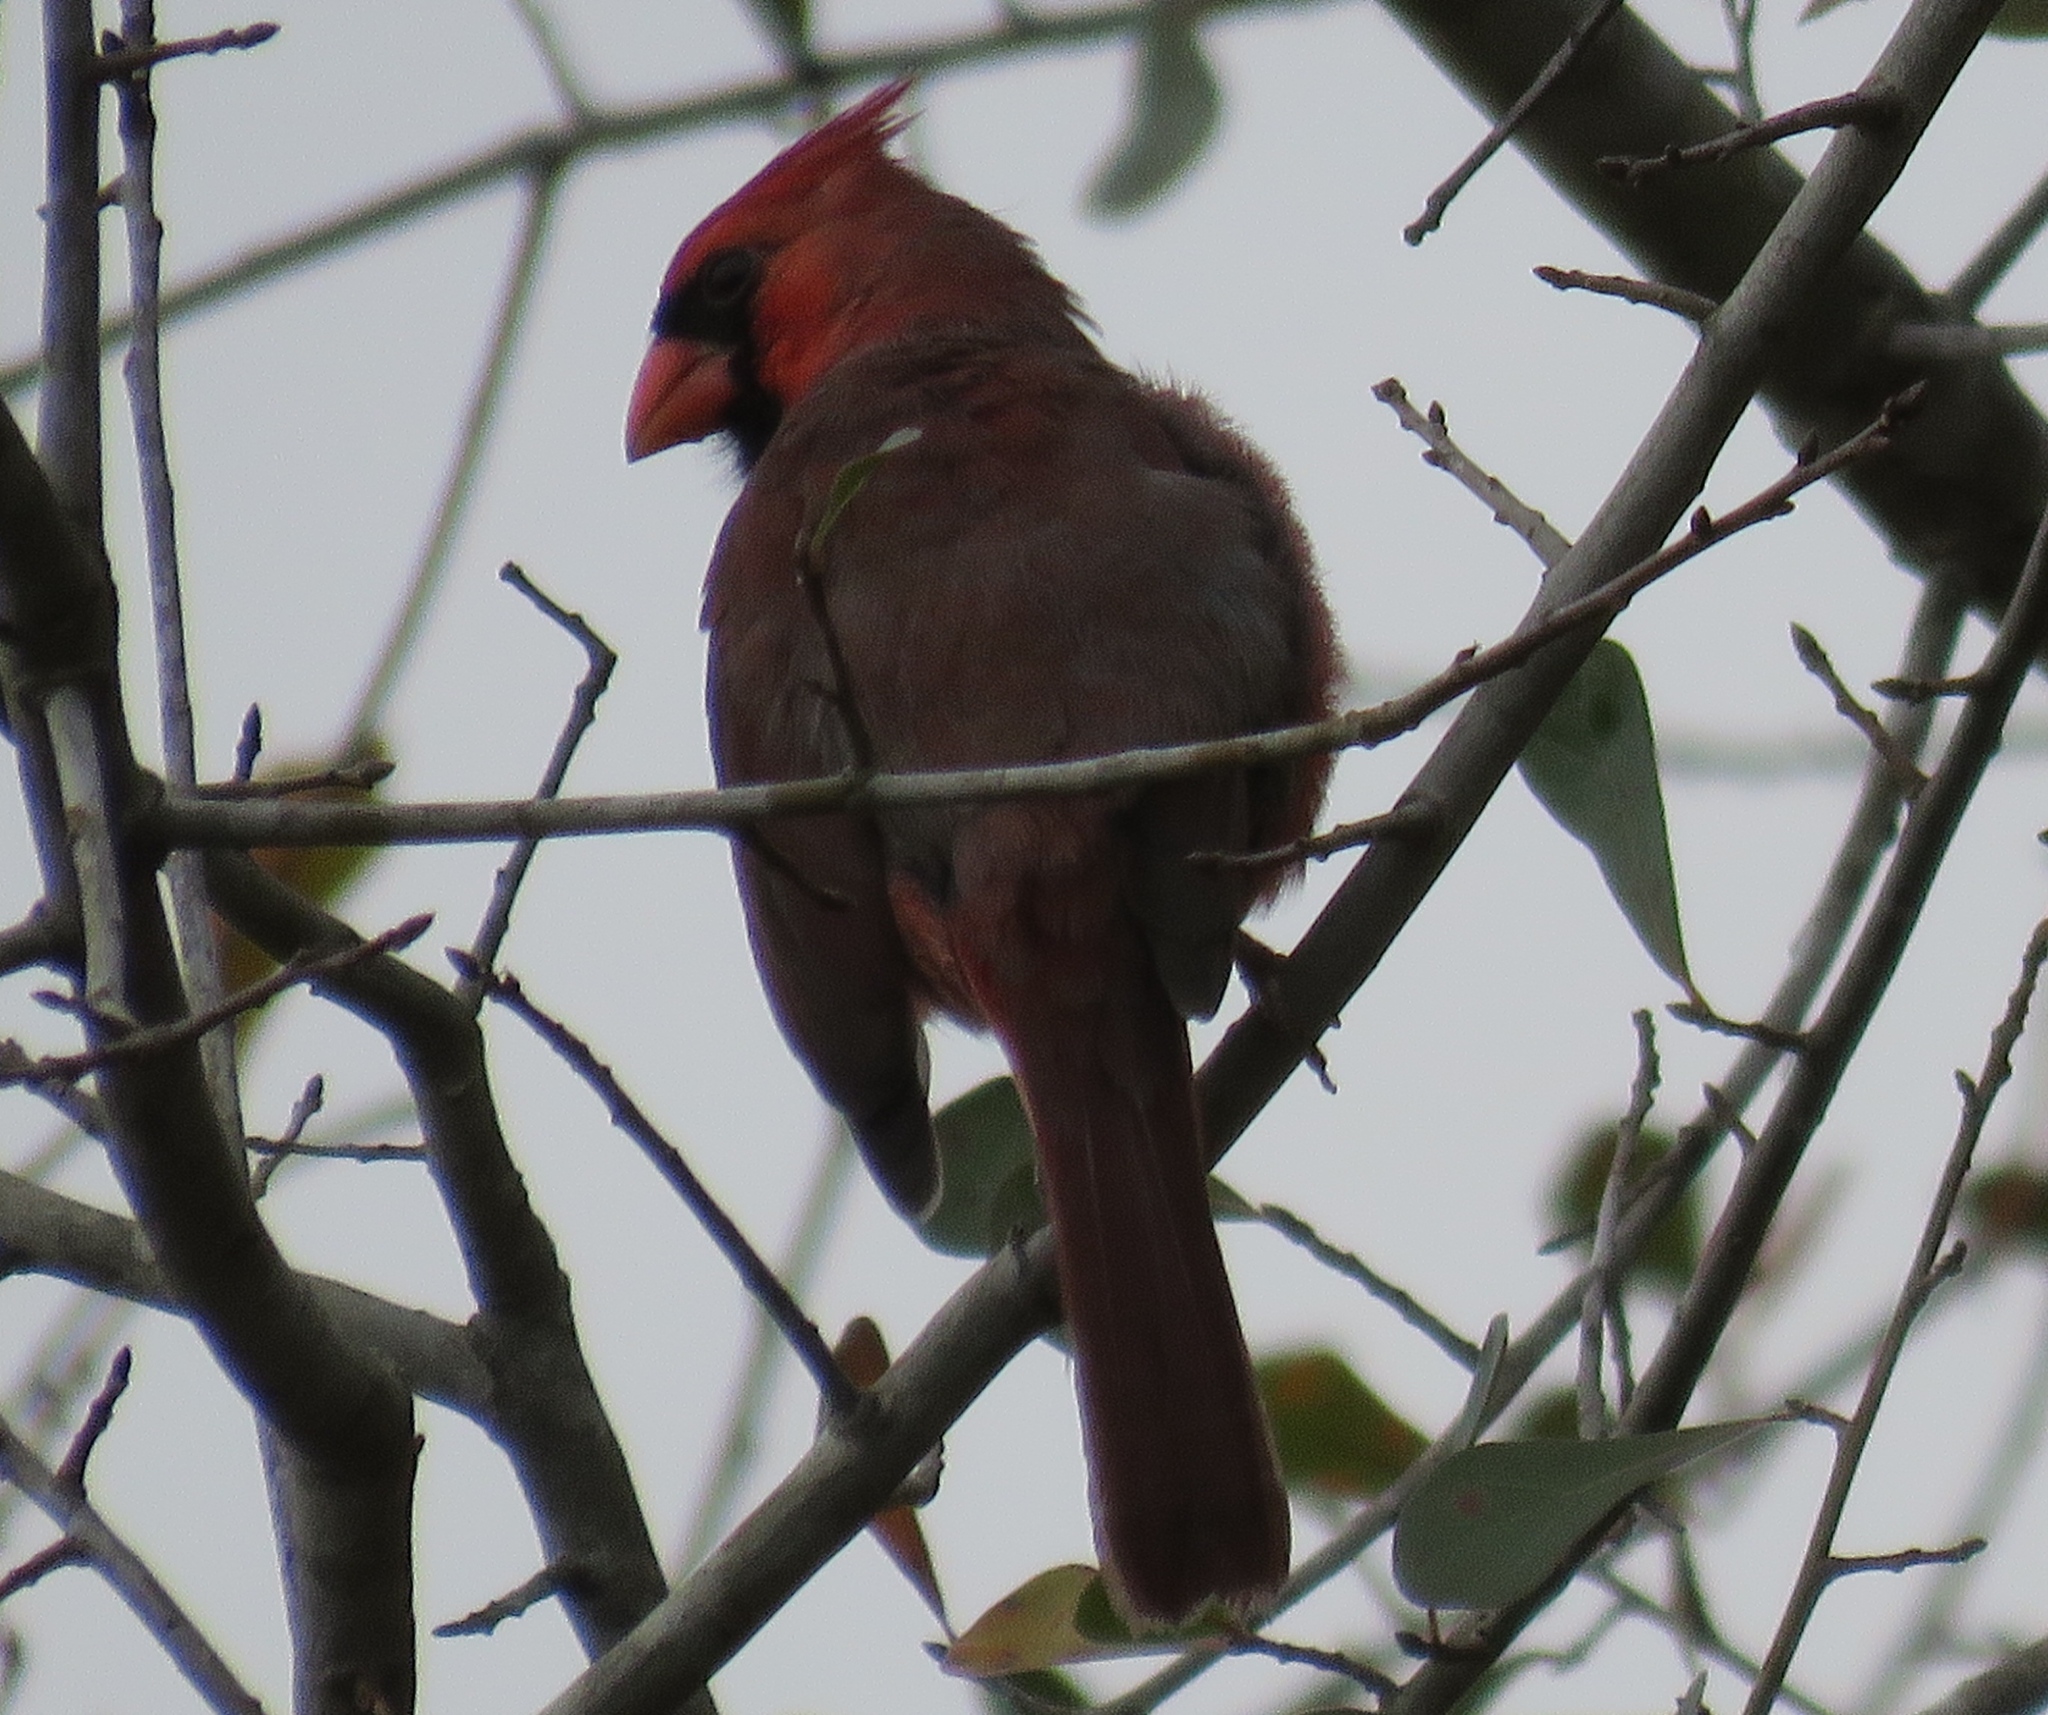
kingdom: Animalia
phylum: Chordata
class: Aves
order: Passeriformes
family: Cardinalidae
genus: Cardinalis
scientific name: Cardinalis cardinalis
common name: Northern cardinal
